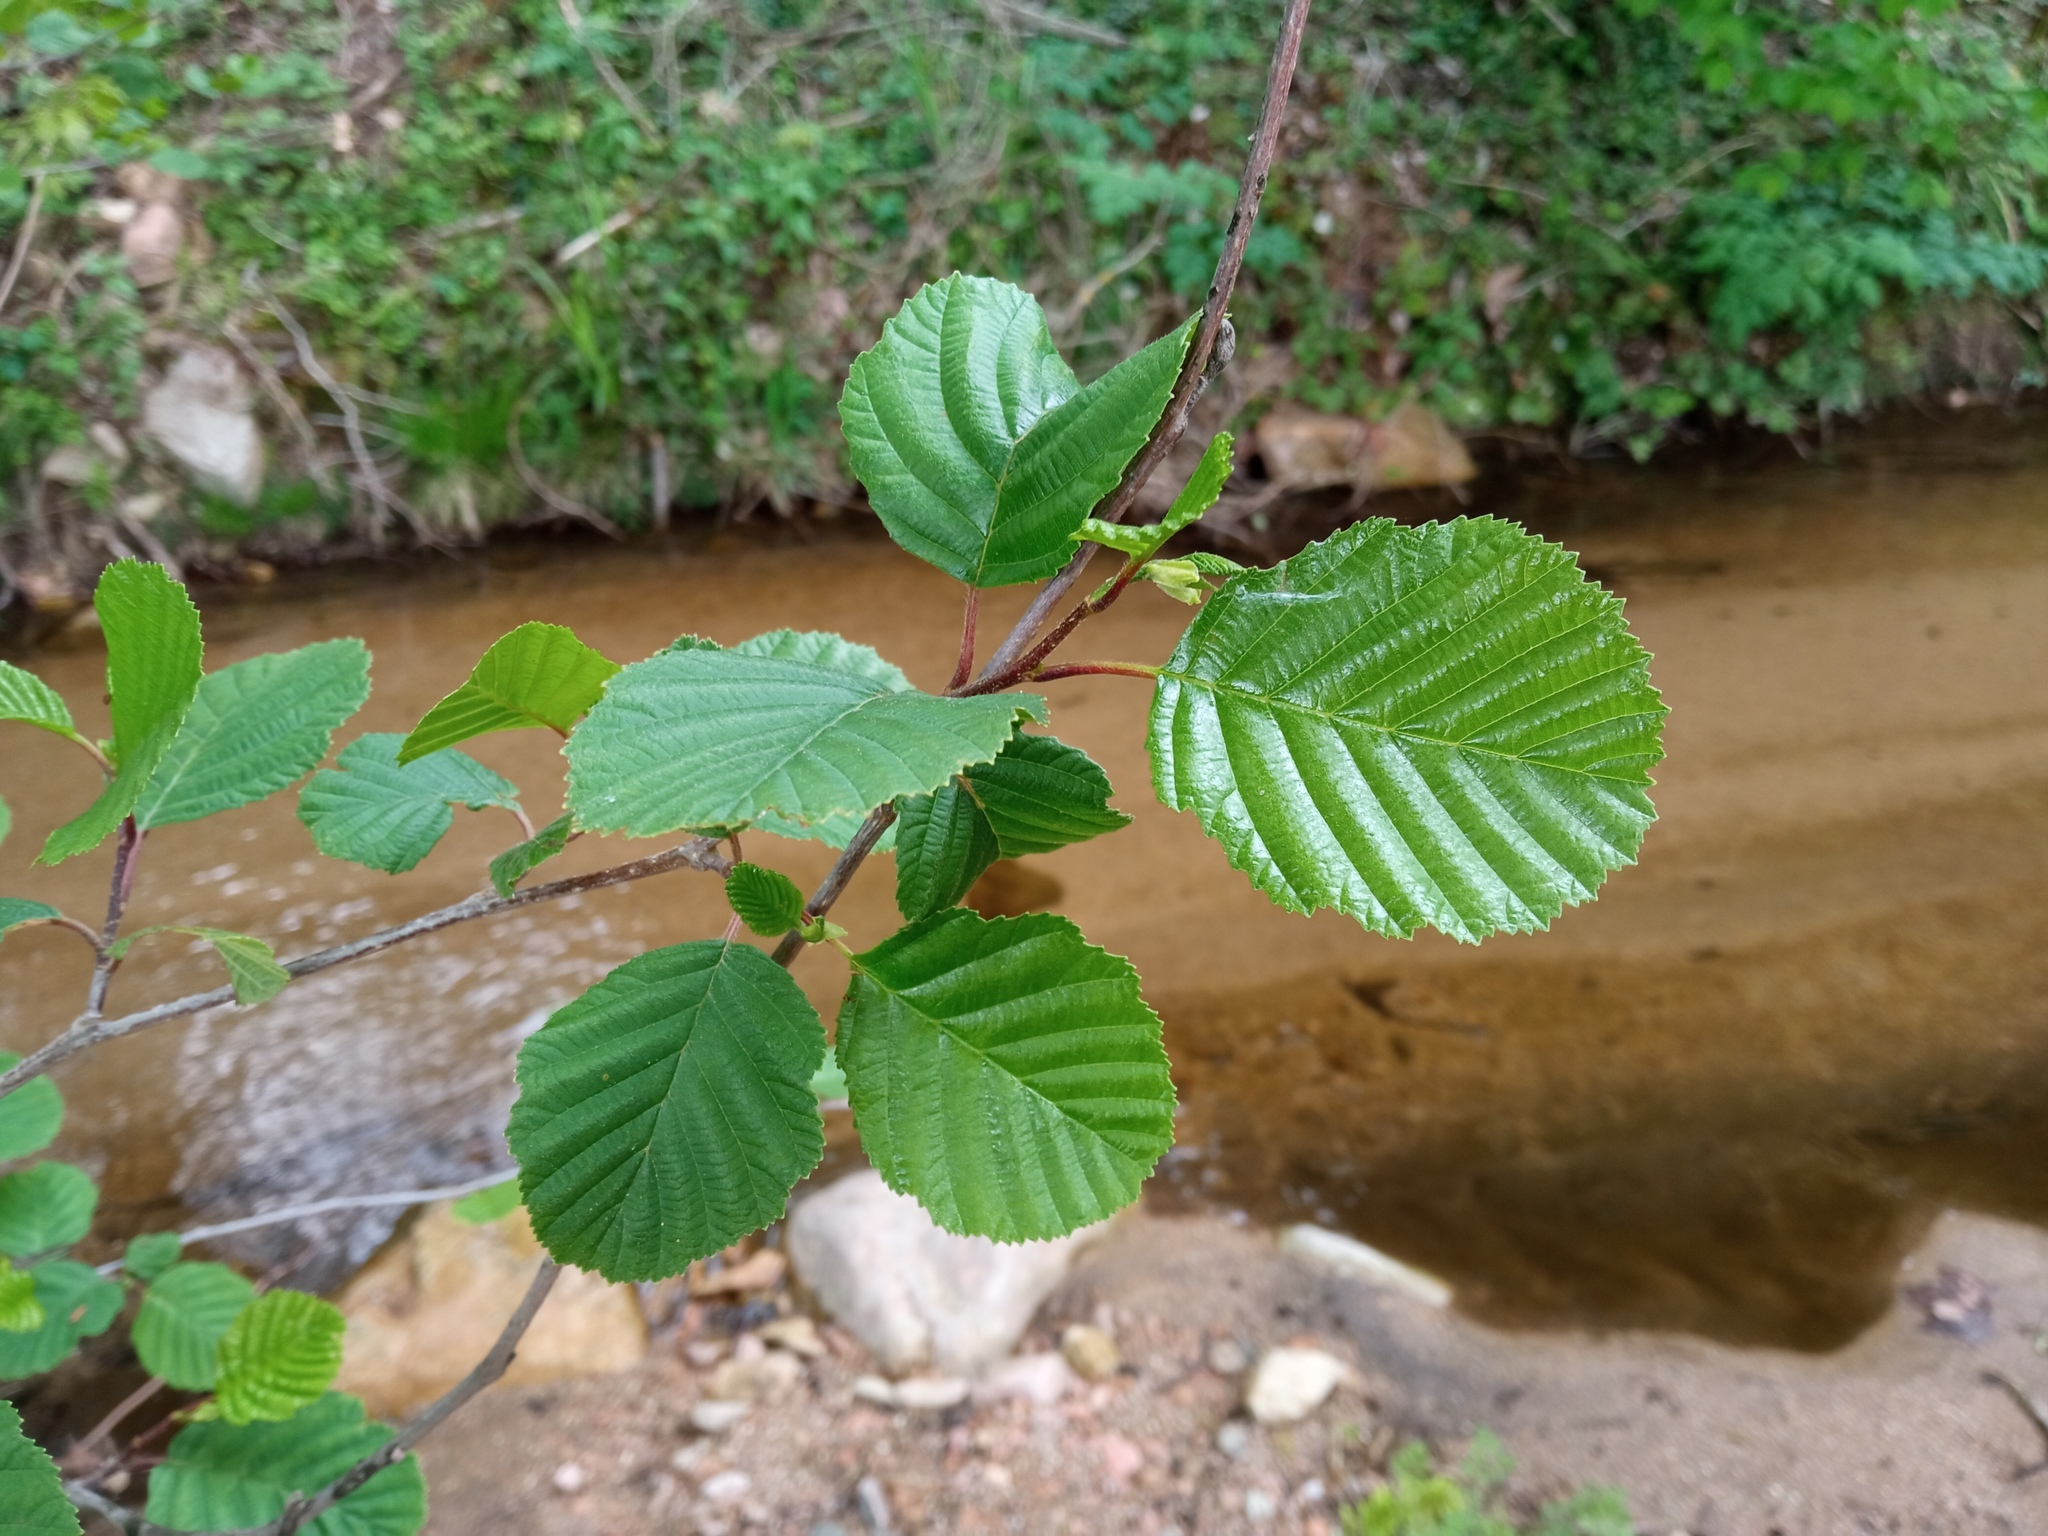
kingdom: Plantae
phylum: Tracheophyta
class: Magnoliopsida
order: Fagales
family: Betulaceae
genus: Alnus
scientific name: Alnus glutinosa
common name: Black alder
